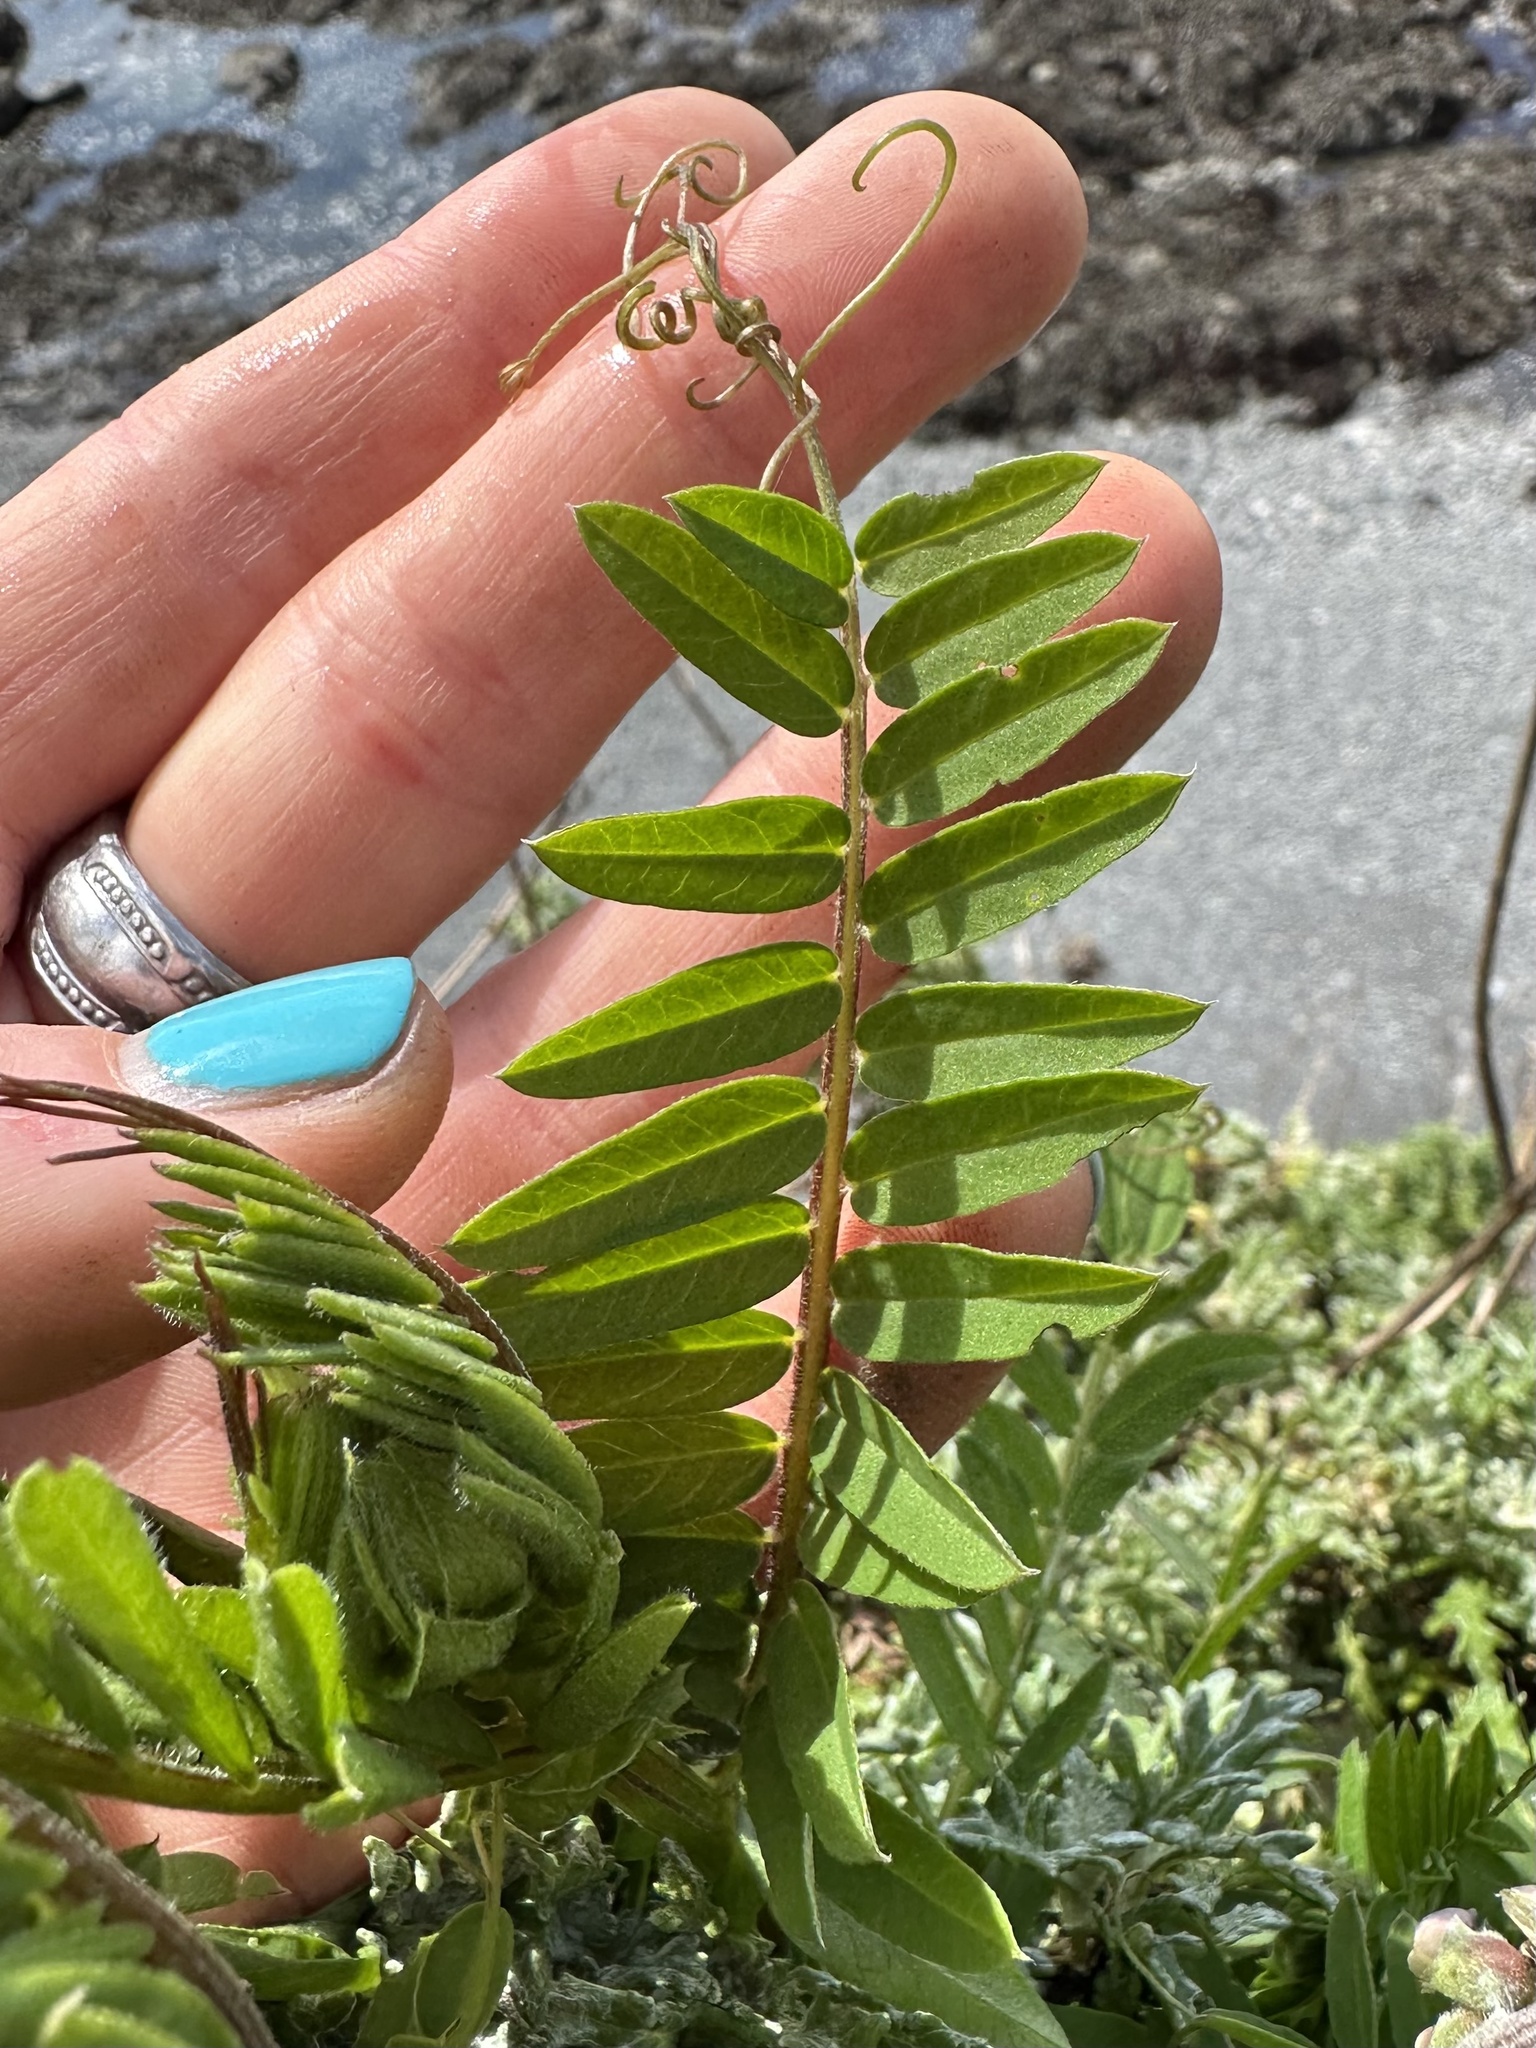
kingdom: Plantae
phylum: Tracheophyta
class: Magnoliopsida
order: Fabales
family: Fabaceae
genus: Vicia
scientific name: Vicia
